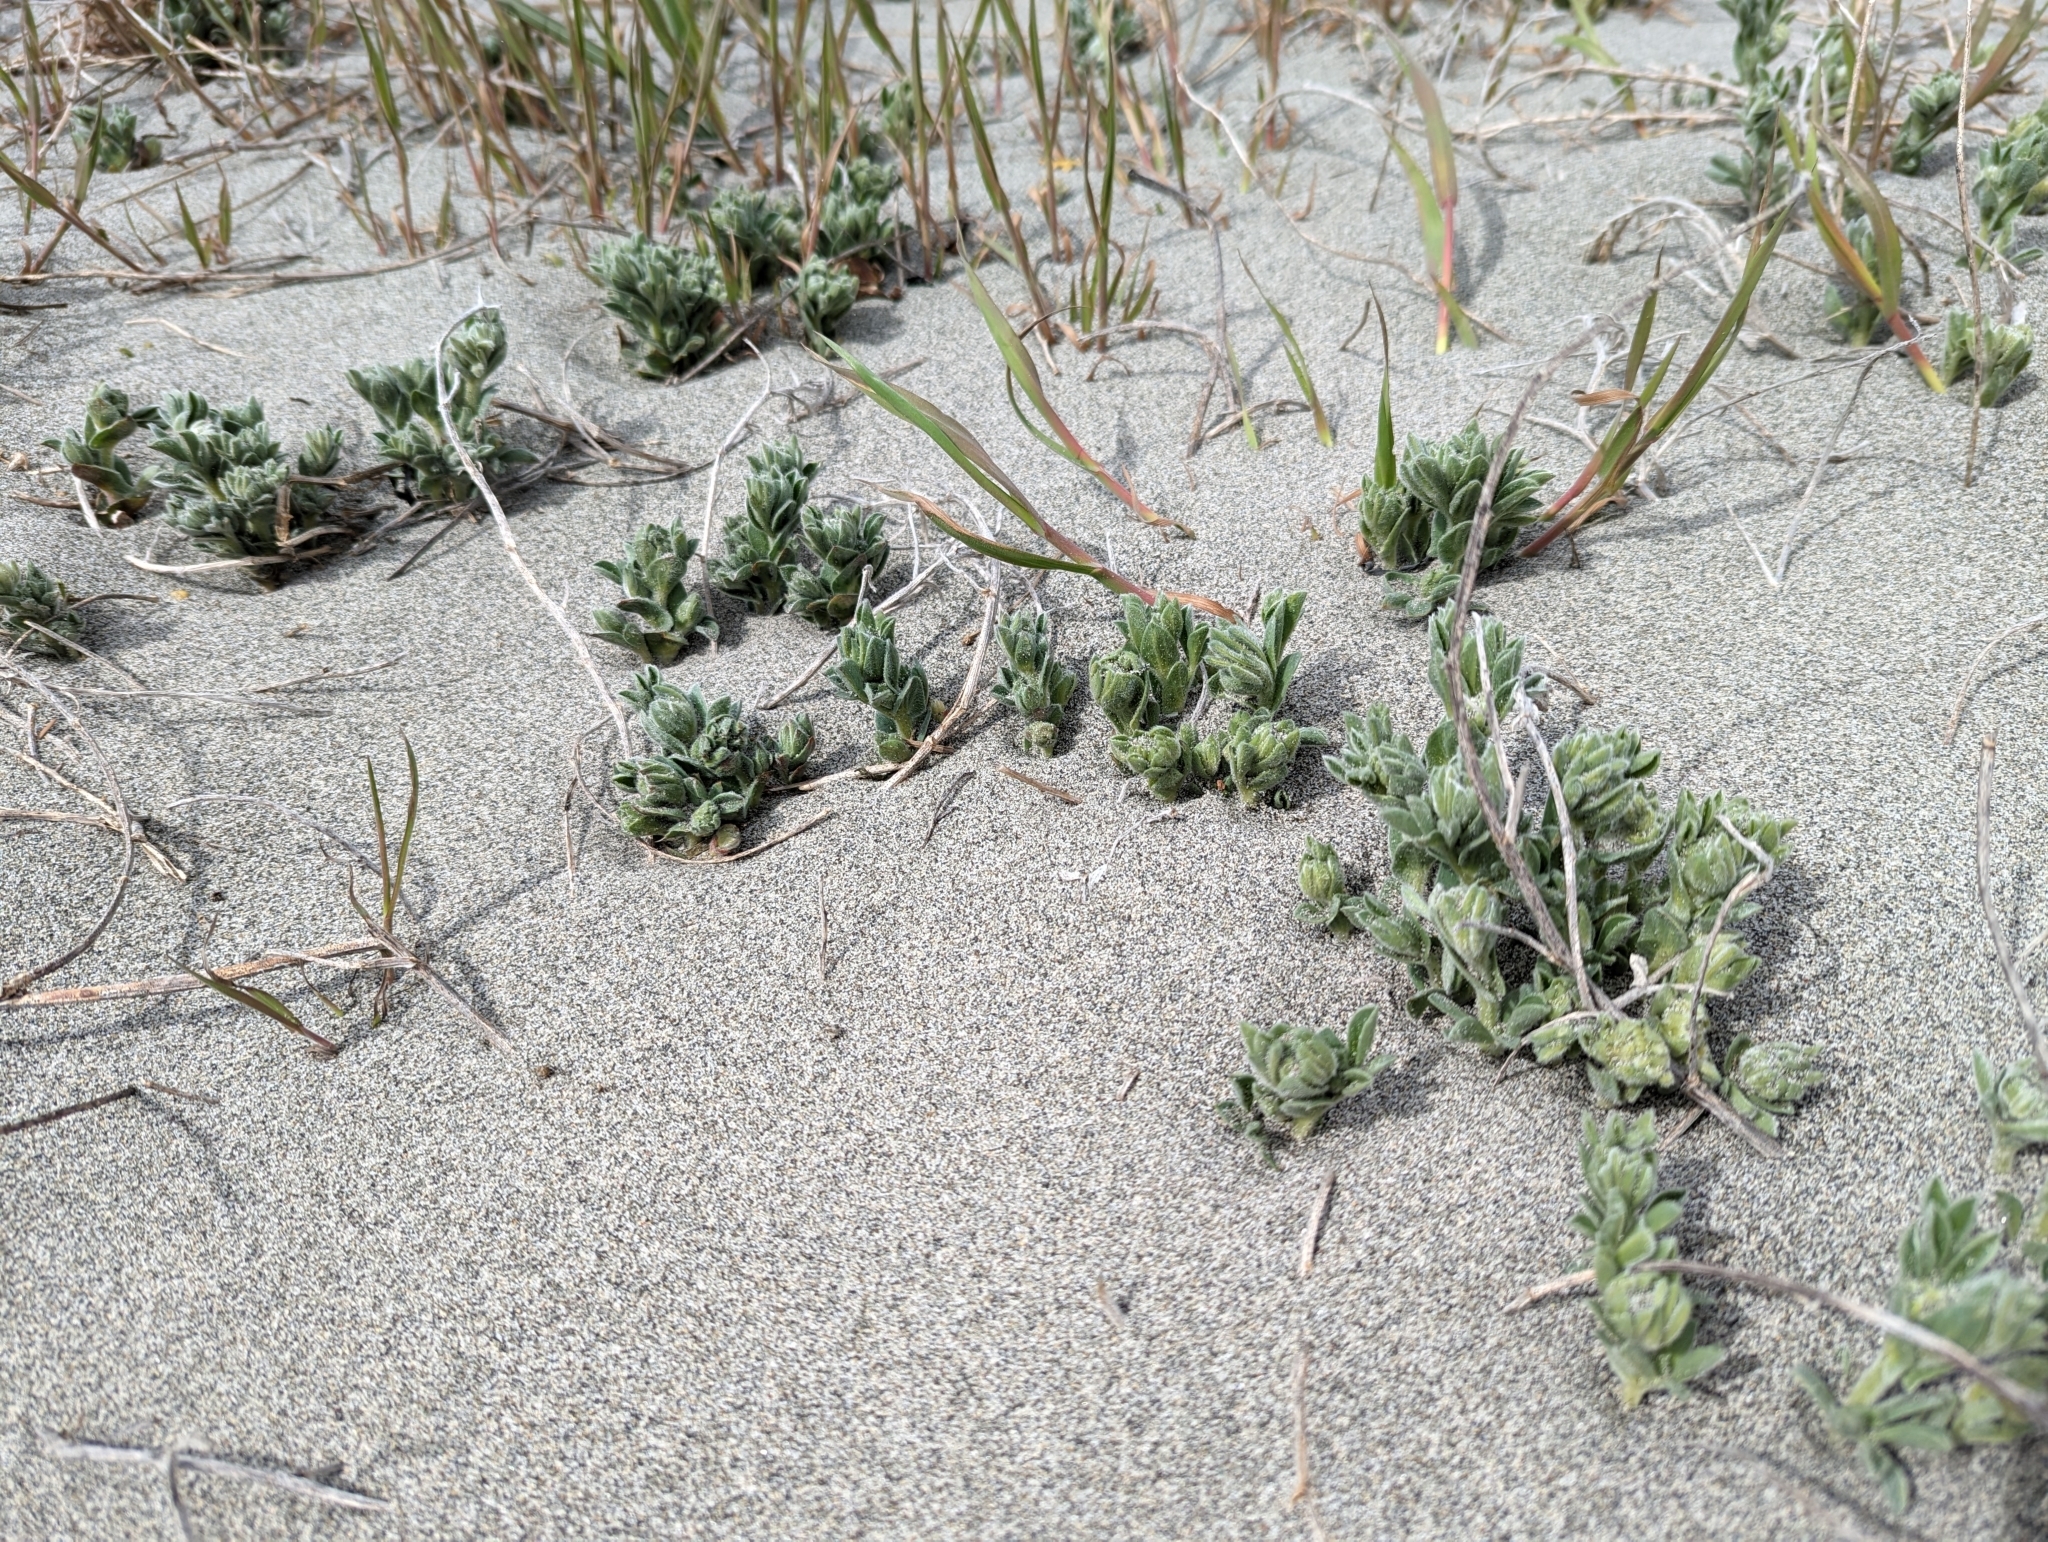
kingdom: Plantae
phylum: Tracheophyta
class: Magnoliopsida
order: Fabales
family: Fabaceae
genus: Lathyrus
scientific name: Lathyrus littoralis
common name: Dune sweet pea
